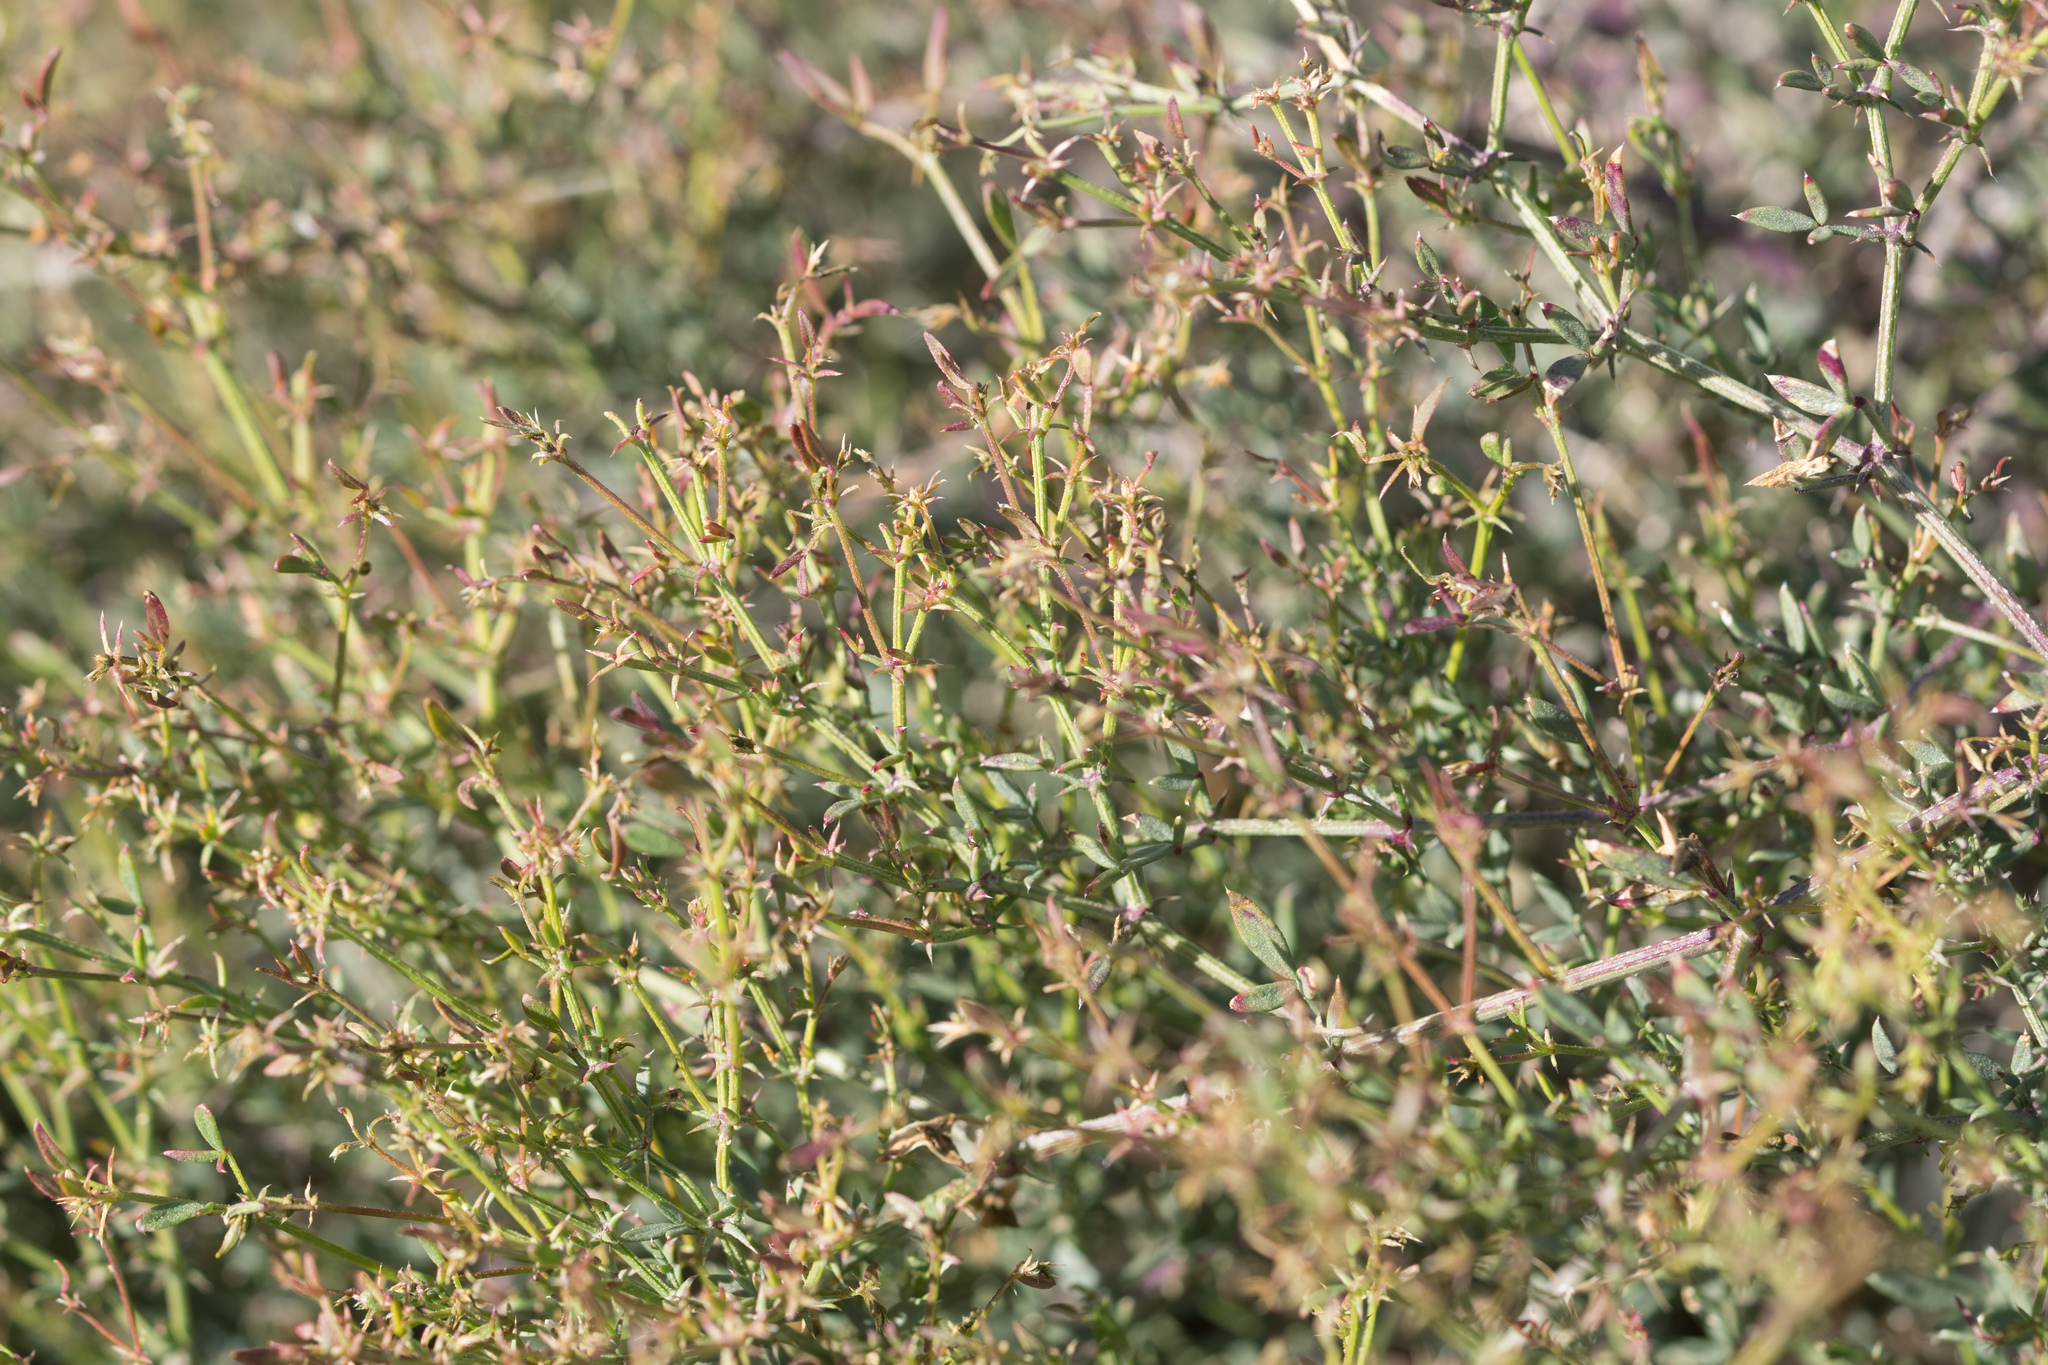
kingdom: Plantae
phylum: Tracheophyta
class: Magnoliopsida
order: Zygophyllales
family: Zygophyllaceae
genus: Fagonia
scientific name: Fagonia laevis
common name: California fagonbush
